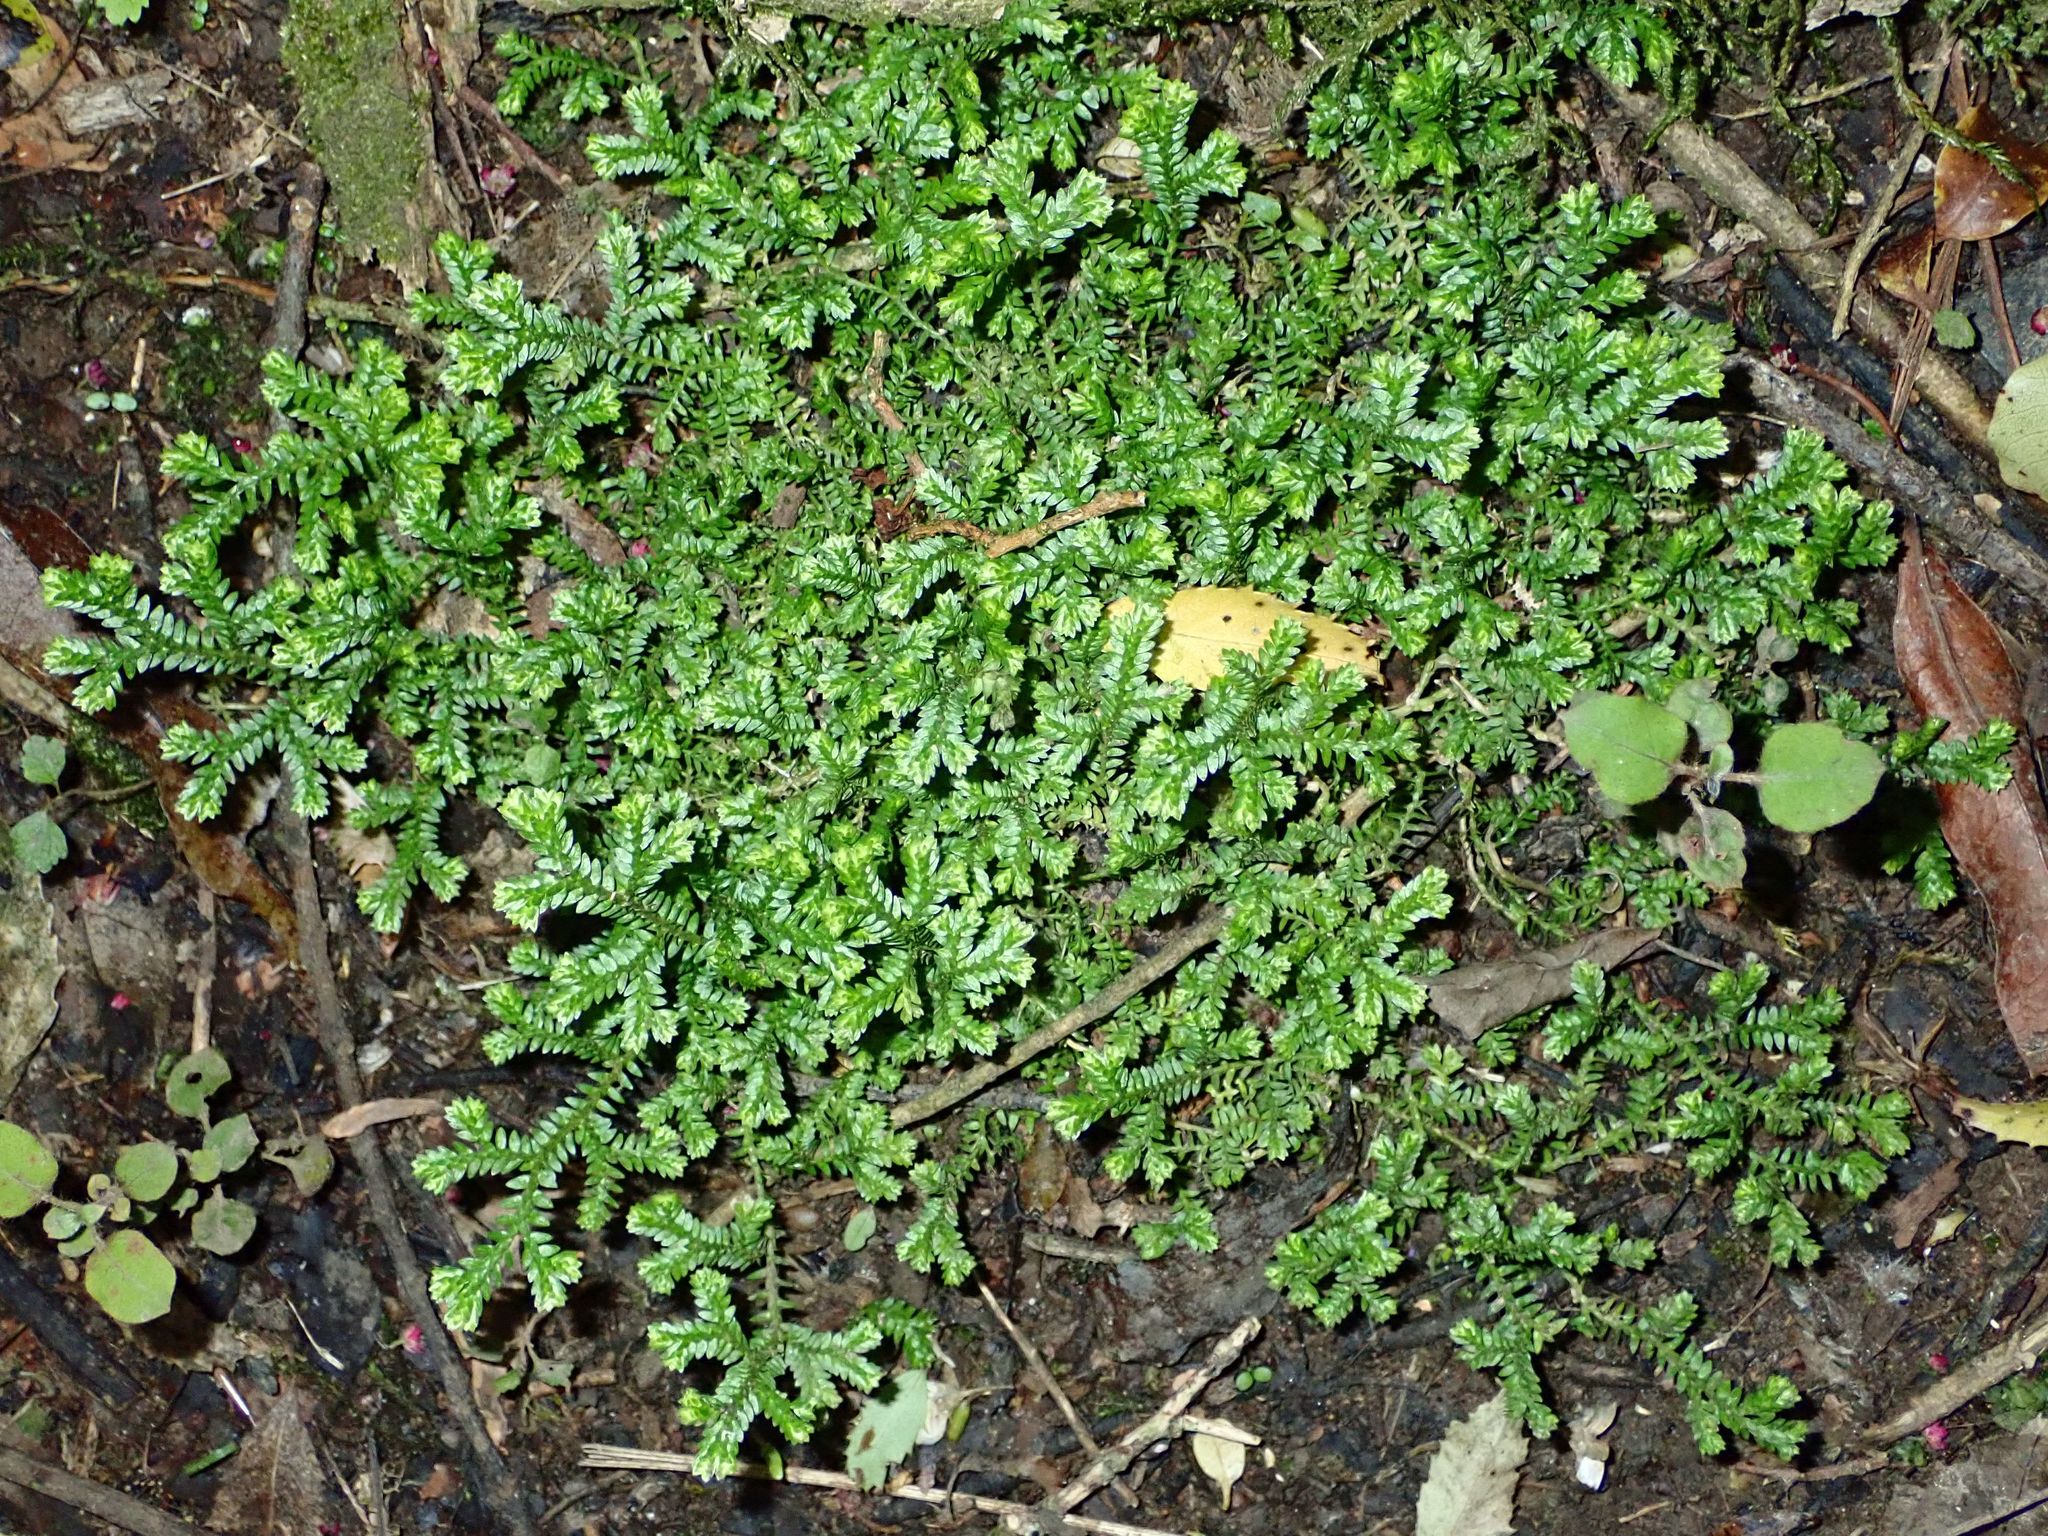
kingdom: Plantae
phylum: Tracheophyta
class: Lycopodiopsida
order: Selaginellales
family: Selaginellaceae
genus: Selaginella
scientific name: Selaginella kraussiana
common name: Krauss' spikemoss
